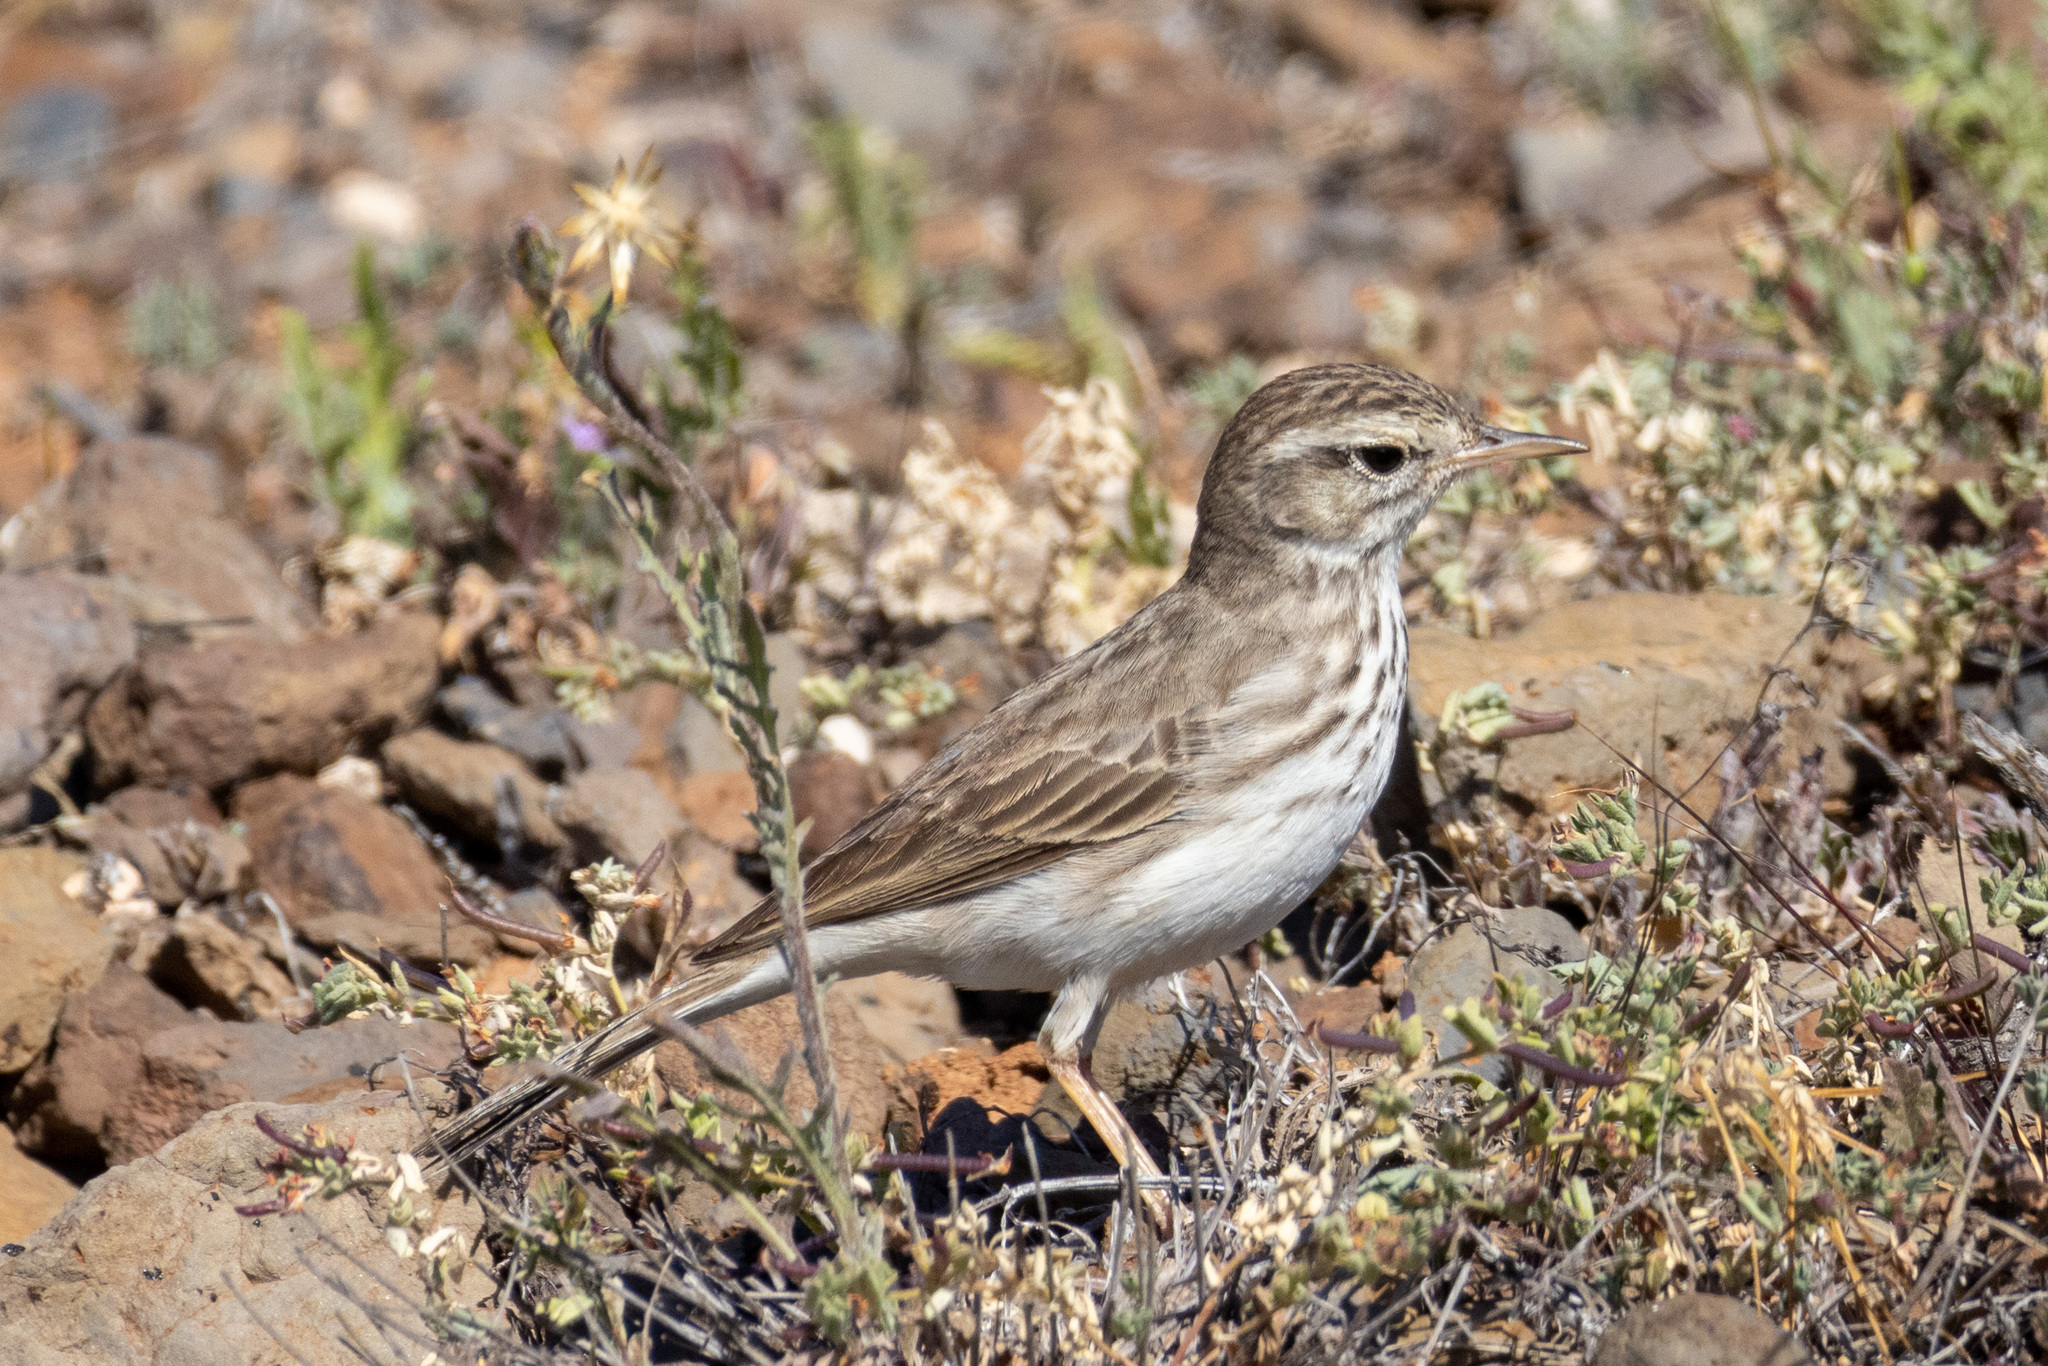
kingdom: Animalia
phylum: Chordata
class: Aves
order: Passeriformes
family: Motacillidae
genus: Anthus
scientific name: Anthus berthelotii
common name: Berthelot's pipit
